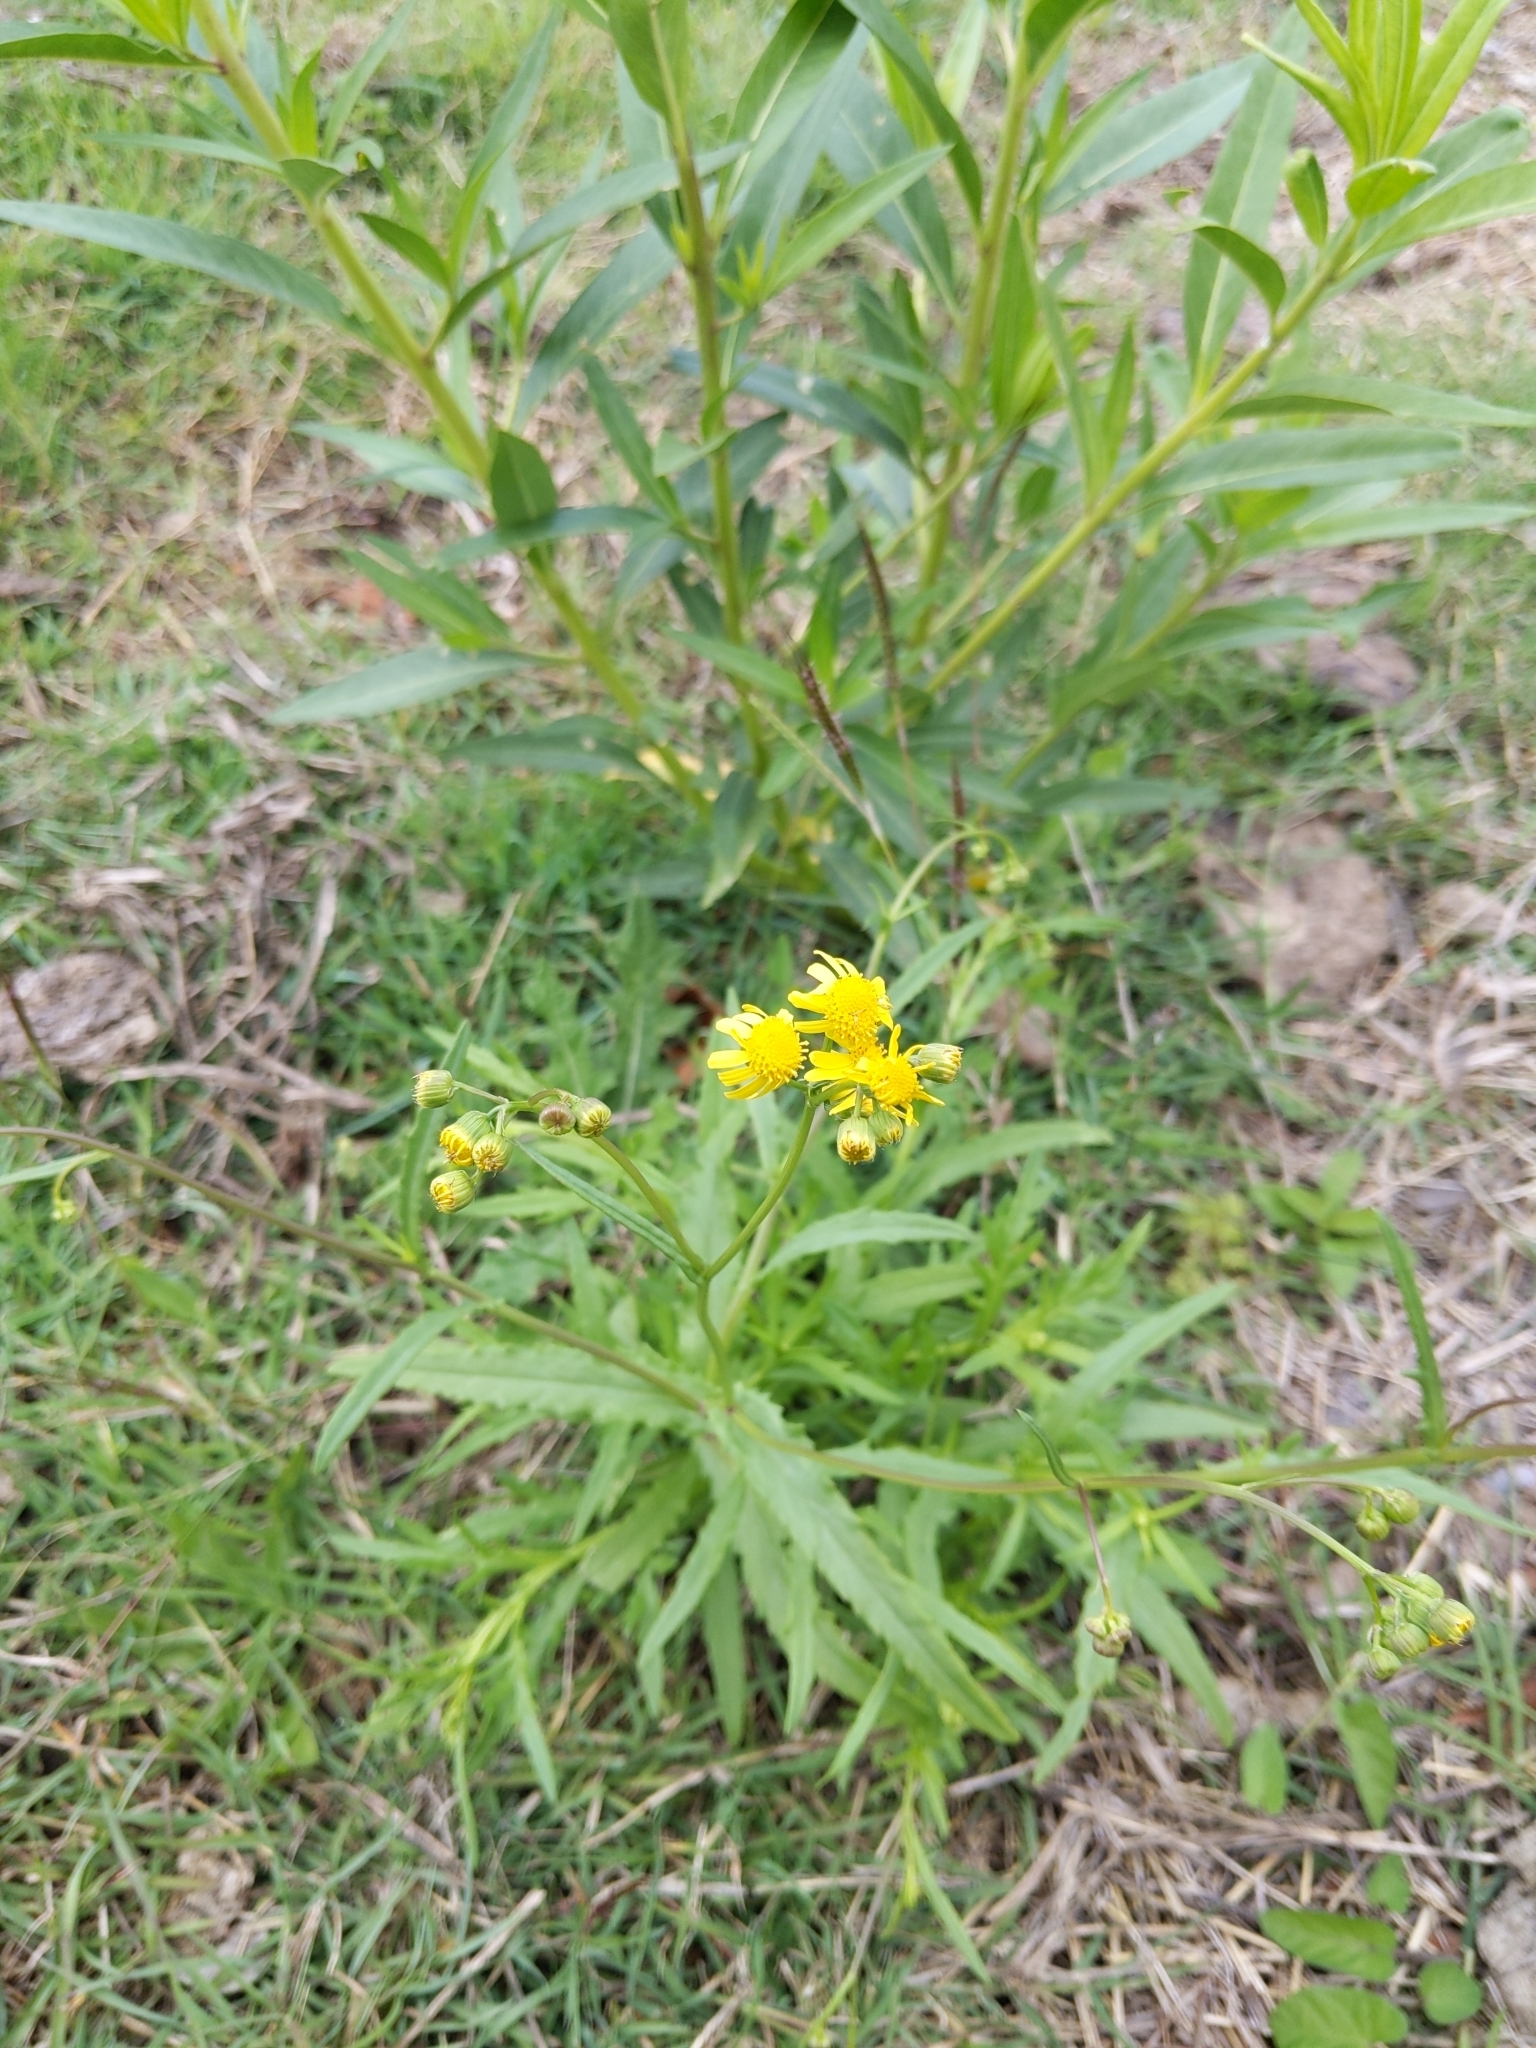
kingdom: Plantae
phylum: Tracheophyta
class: Magnoliopsida
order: Asterales
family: Asteraceae
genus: Senecio
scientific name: Senecio madagascariensis
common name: Madagascar ragwort
